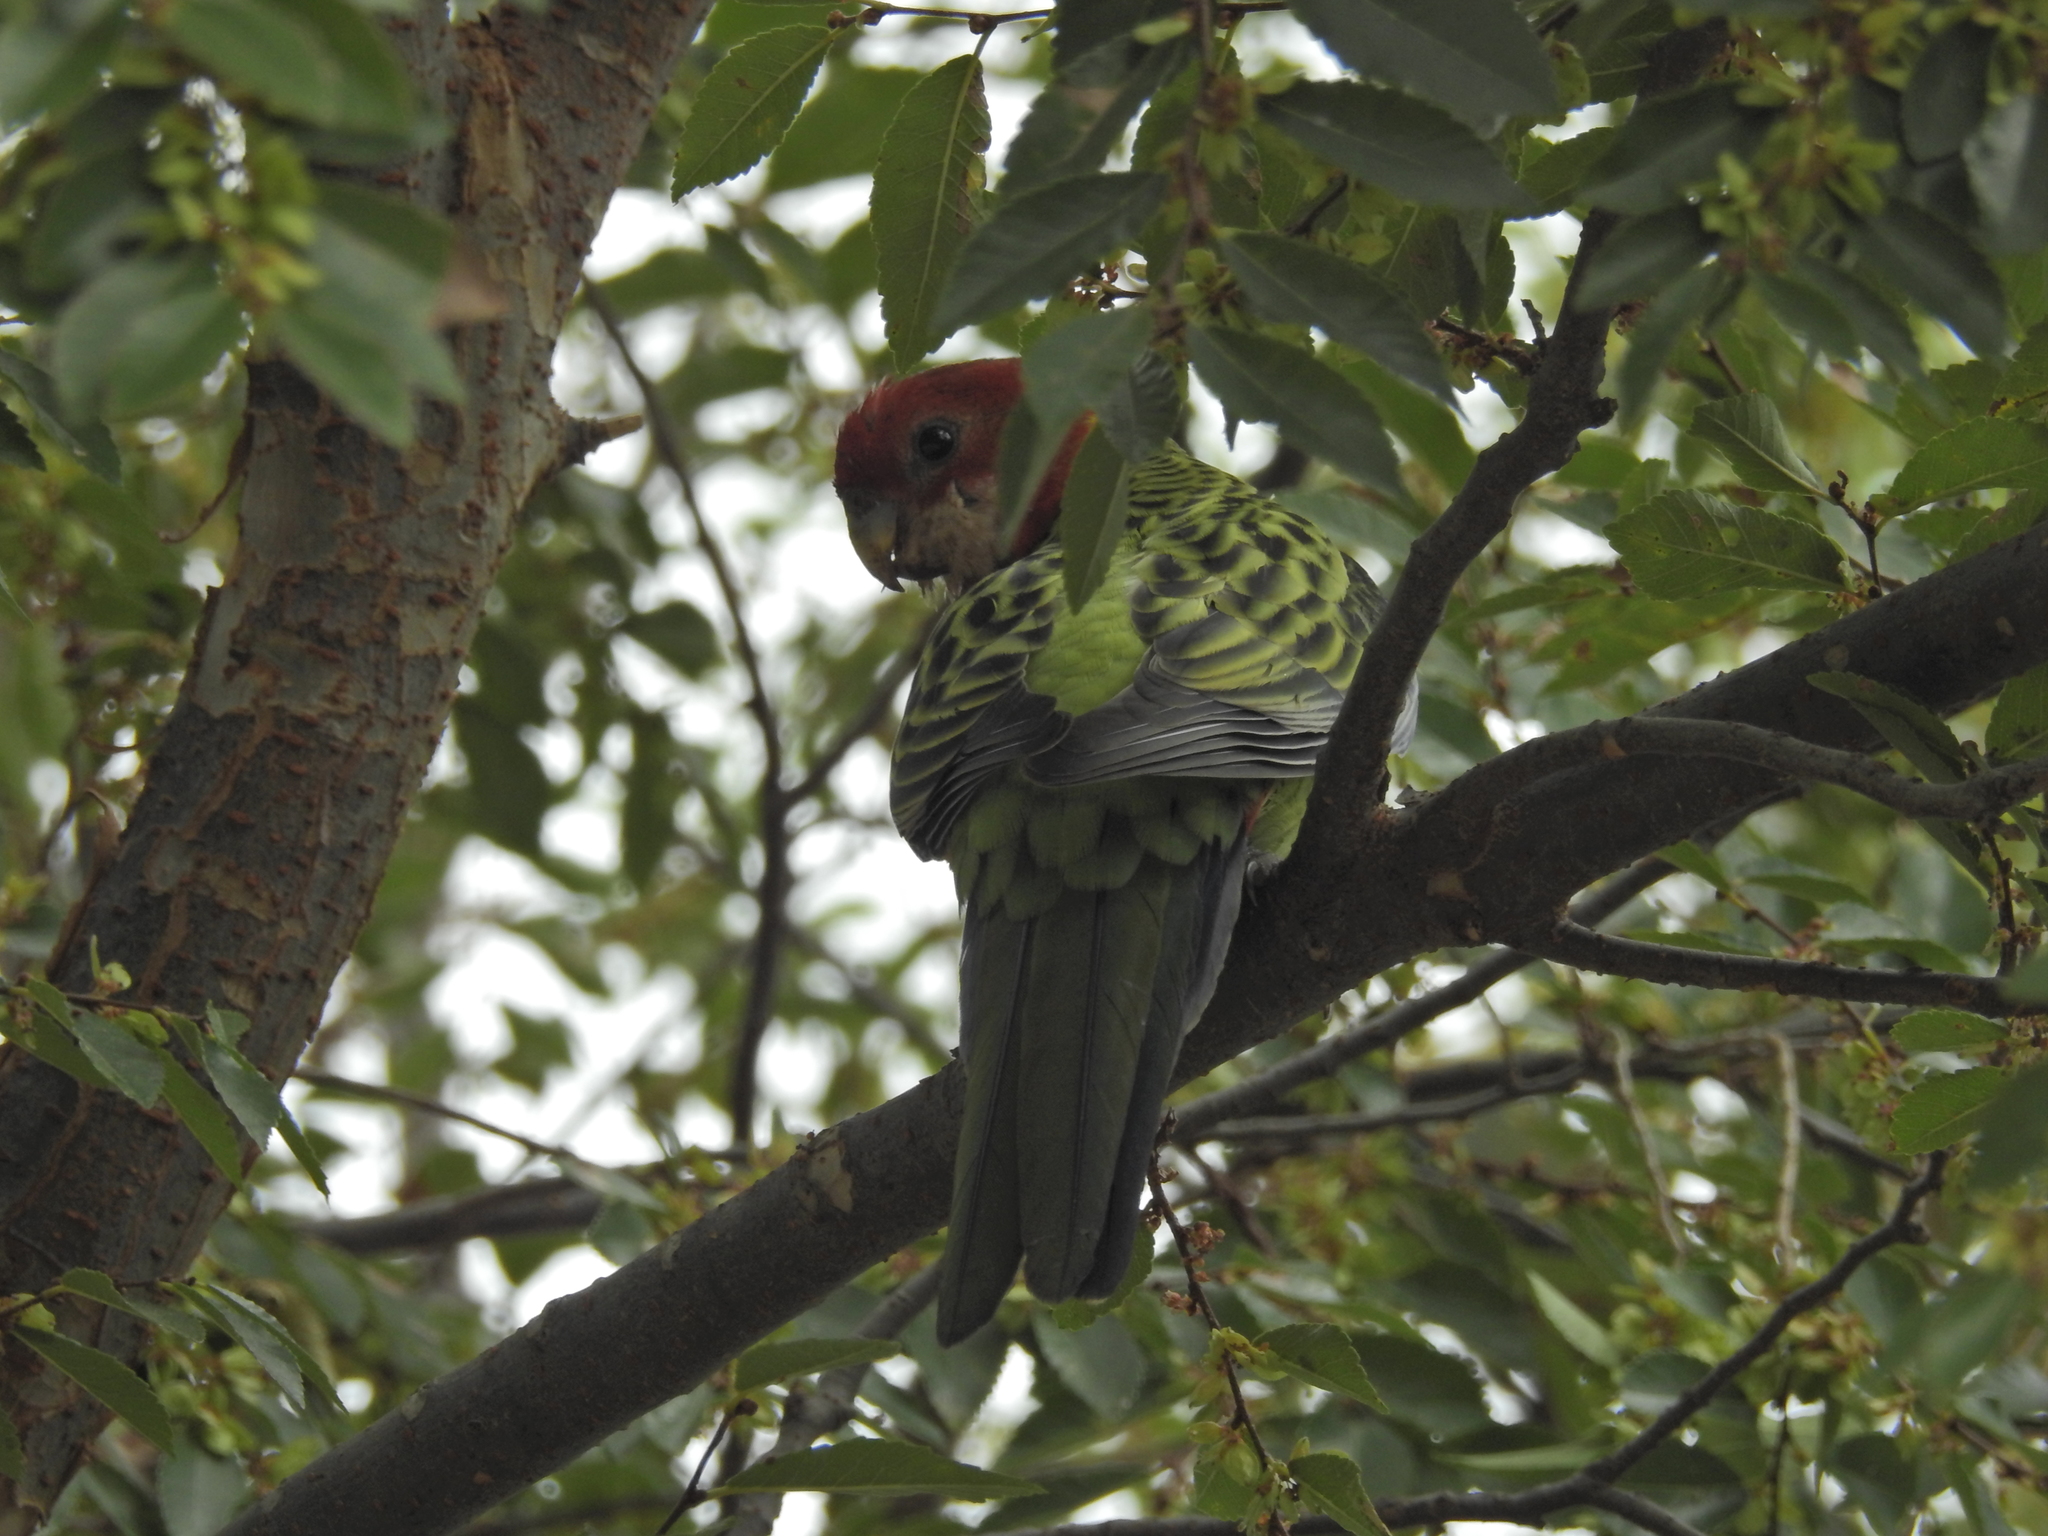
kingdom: Animalia
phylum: Chordata
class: Aves
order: Psittaciformes
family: Psittacidae
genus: Platycercus
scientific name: Platycercus eximius
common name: Eastern rosella
